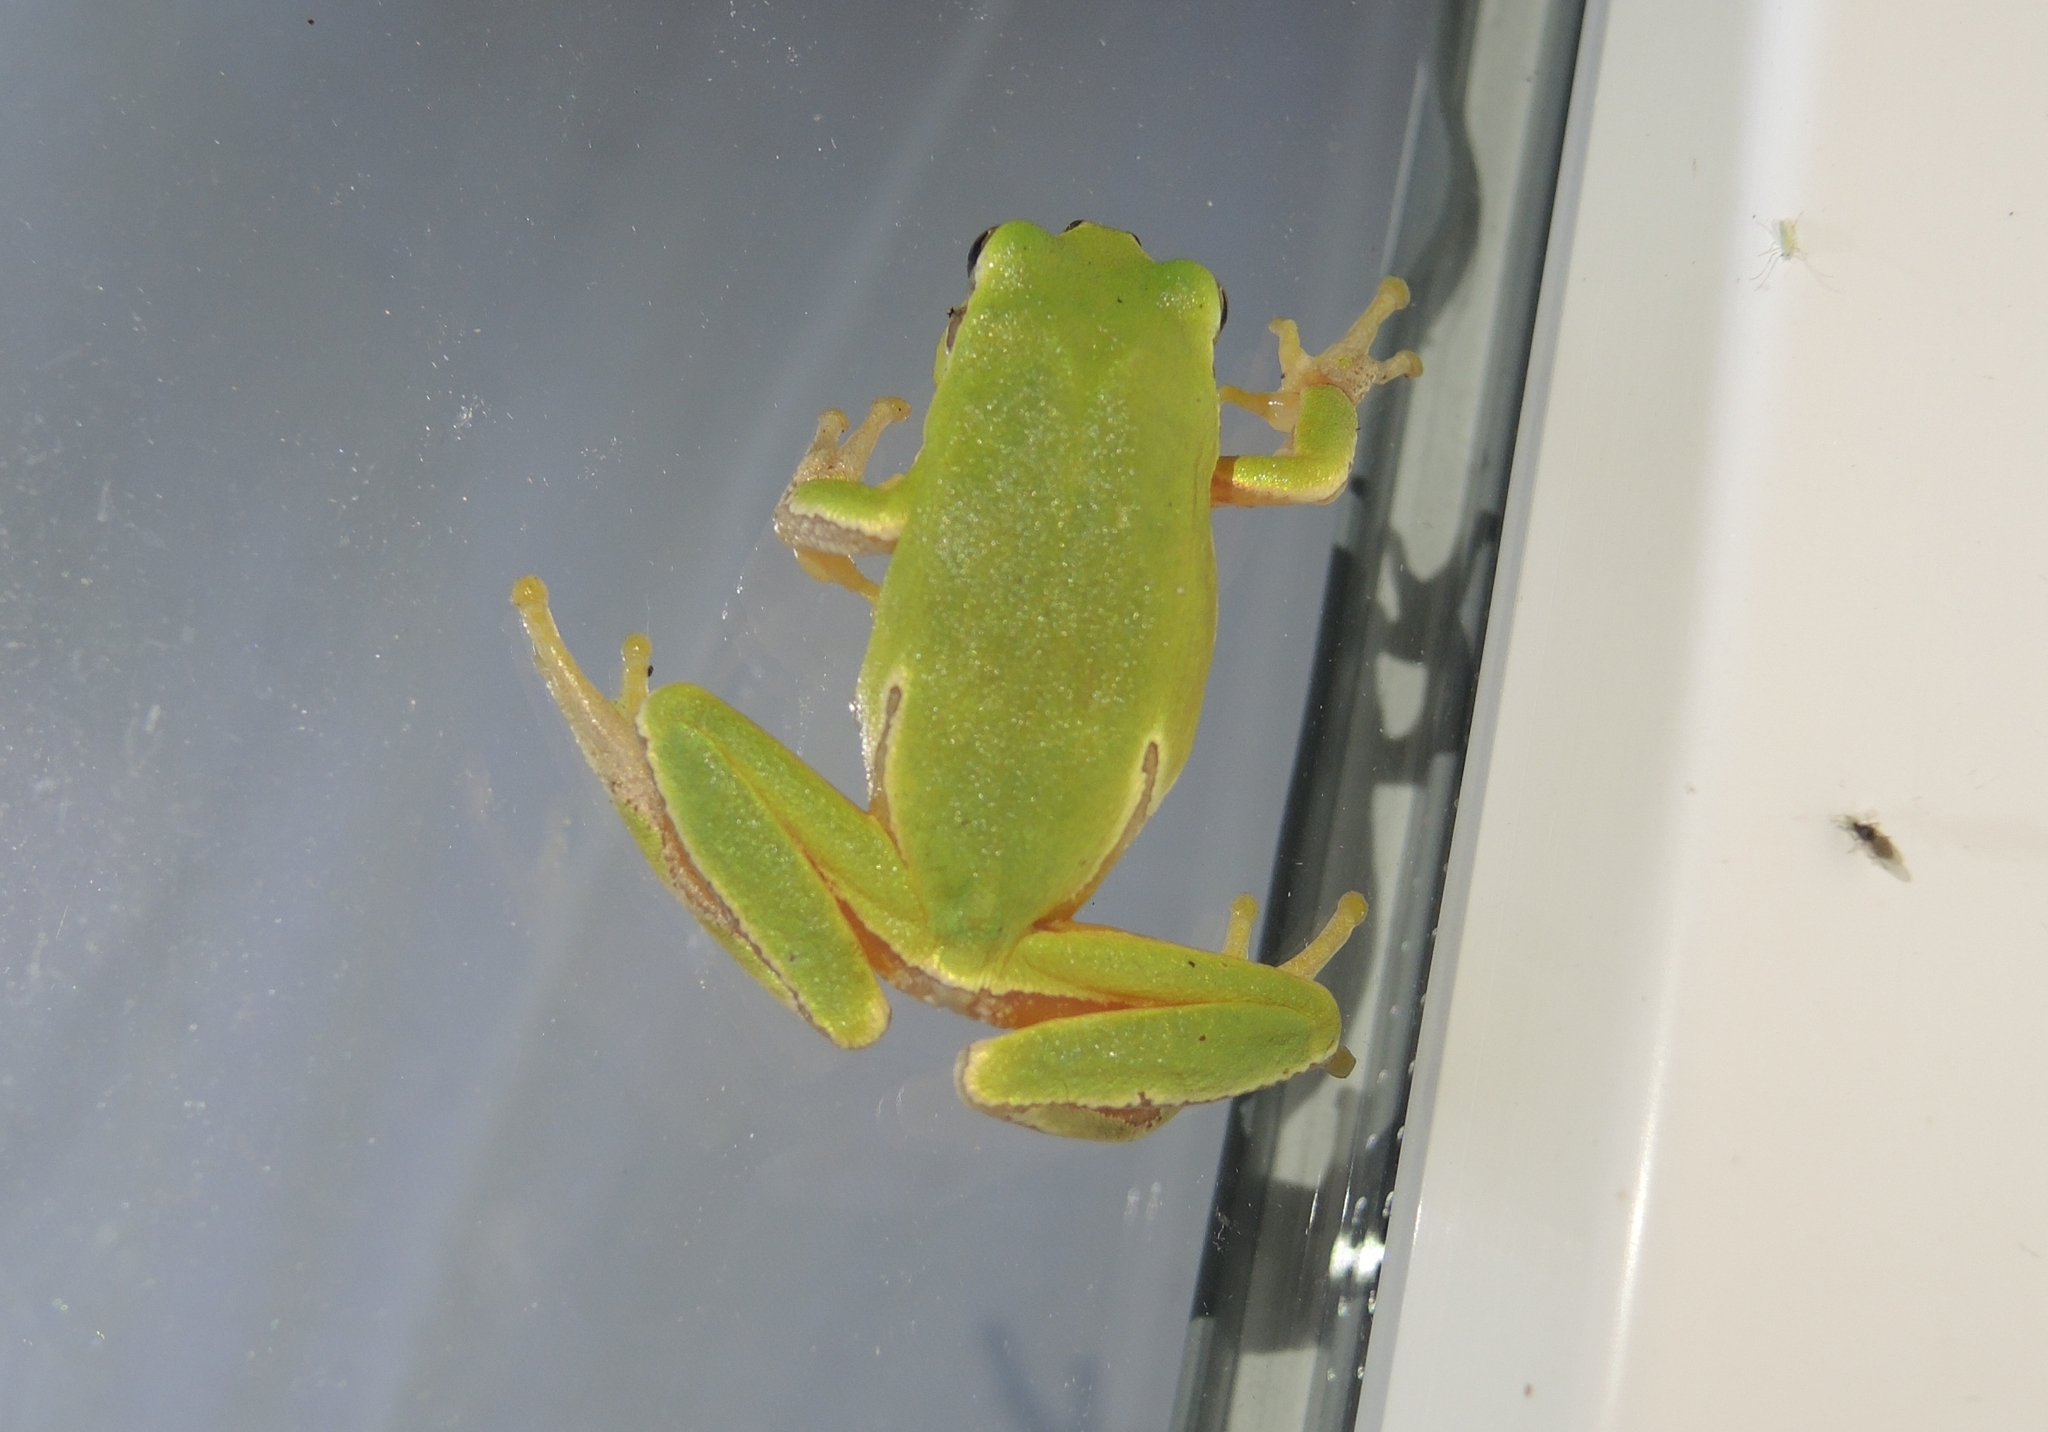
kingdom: Animalia
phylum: Chordata
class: Amphibia
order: Anura
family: Hylidae
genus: Hyla
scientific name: Hyla orientalis
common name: Caucasian treefrog
